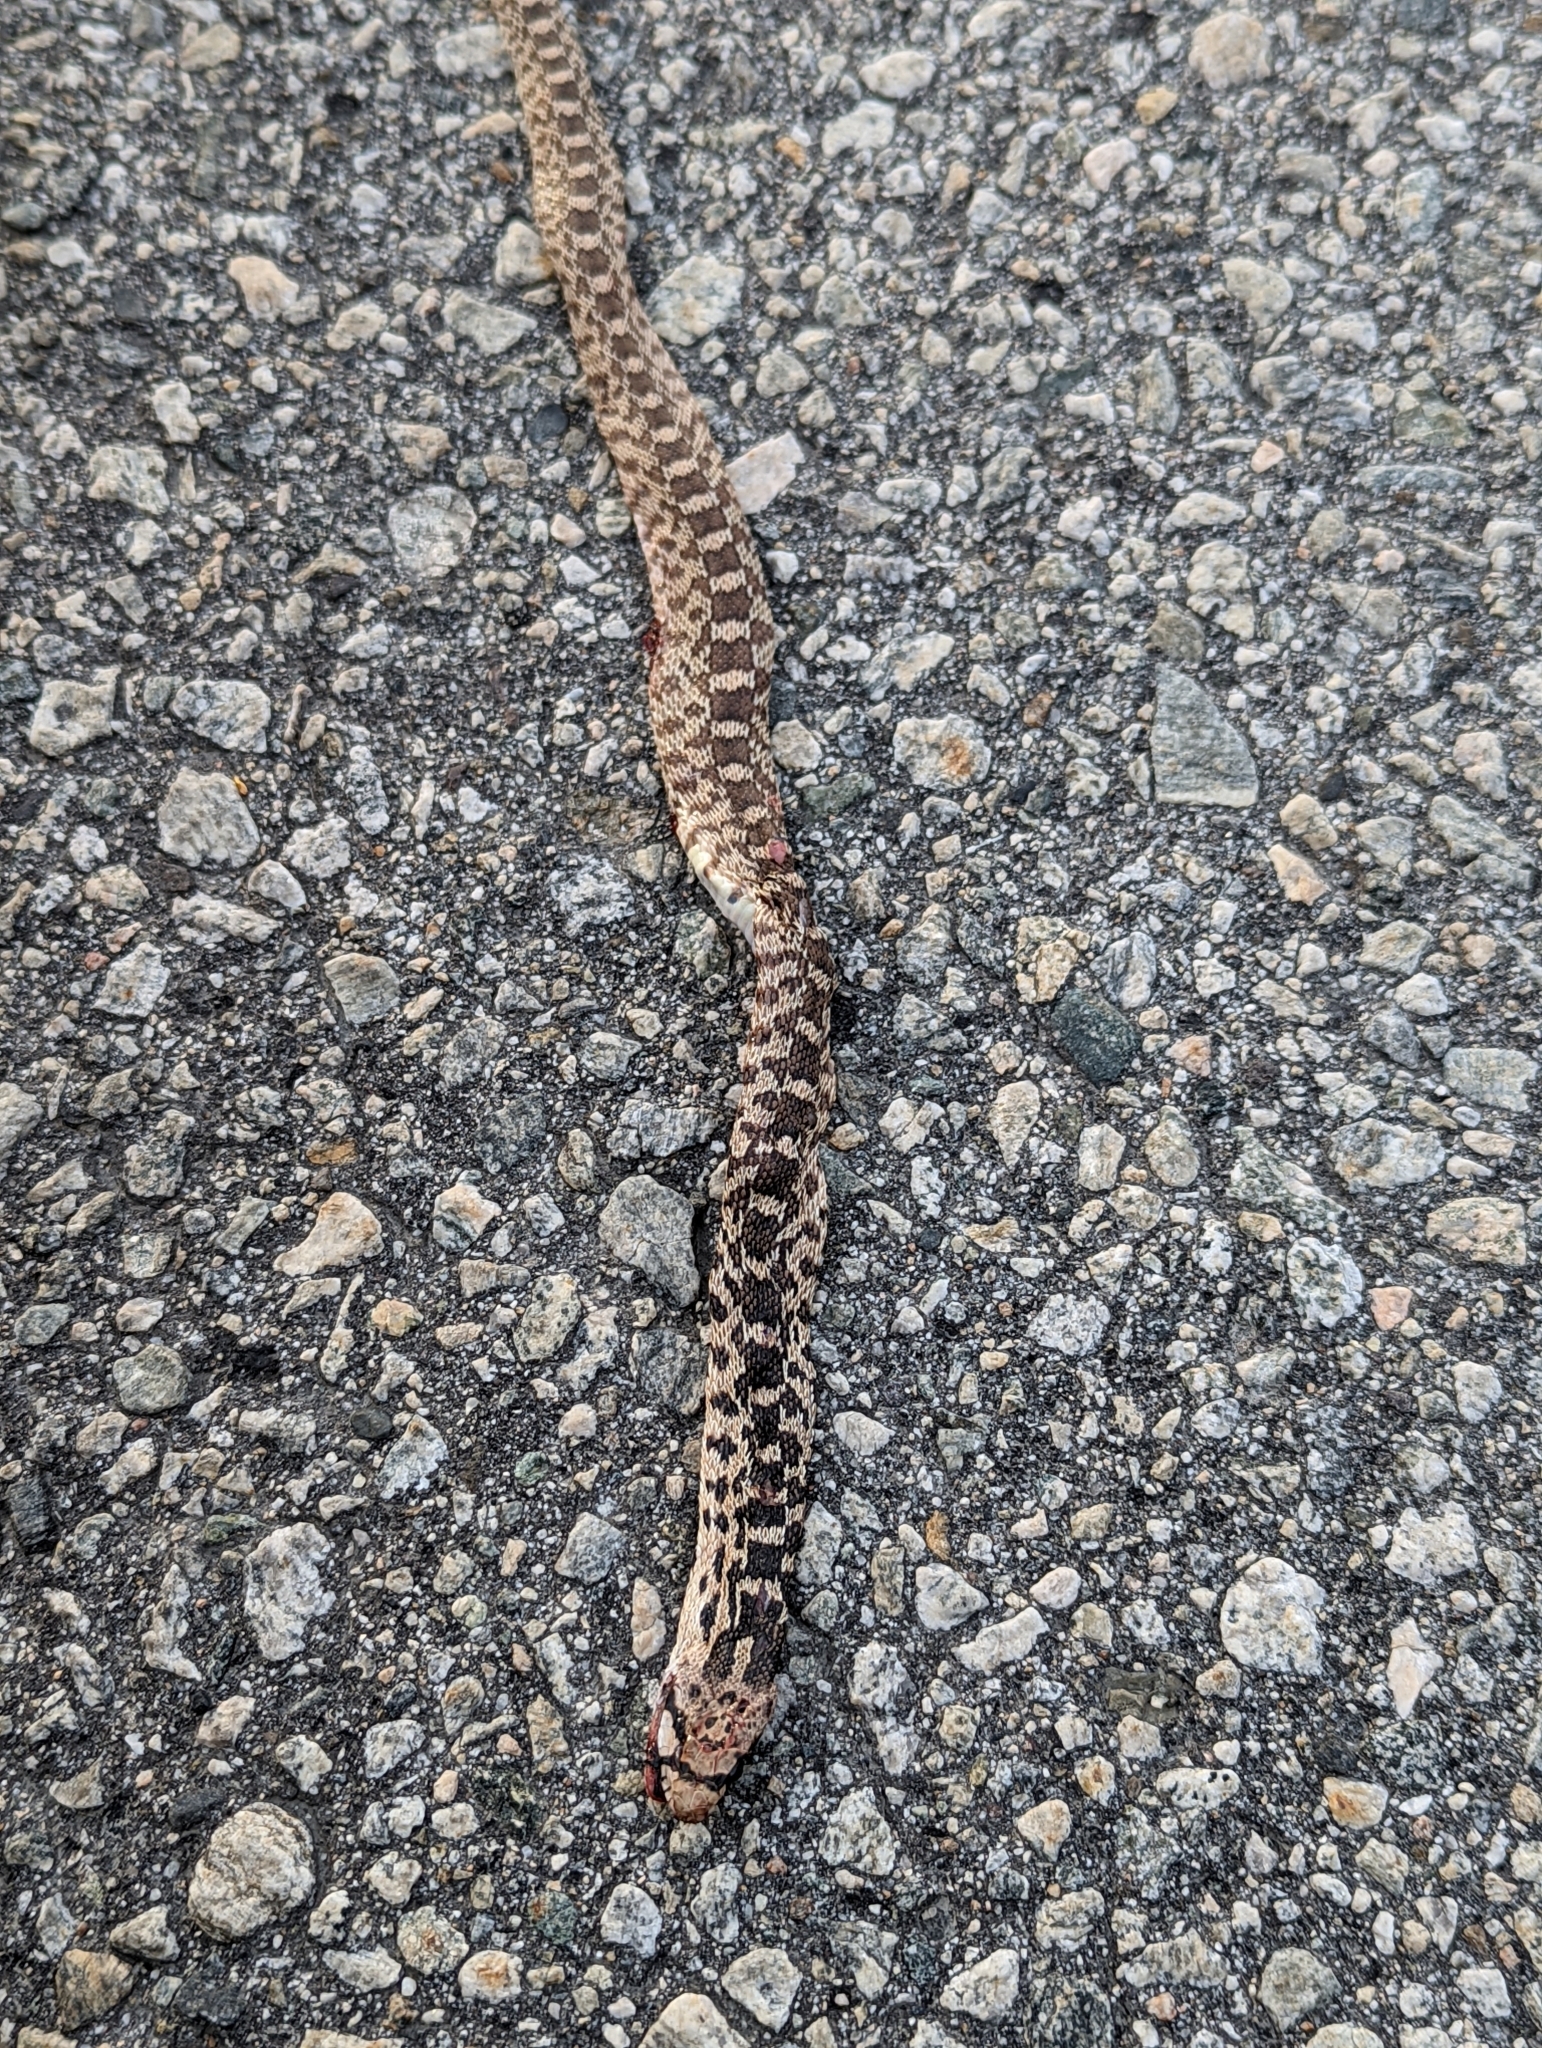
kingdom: Animalia
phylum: Chordata
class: Squamata
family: Colubridae
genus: Pituophis
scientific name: Pituophis catenifer
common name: Gopher snake
